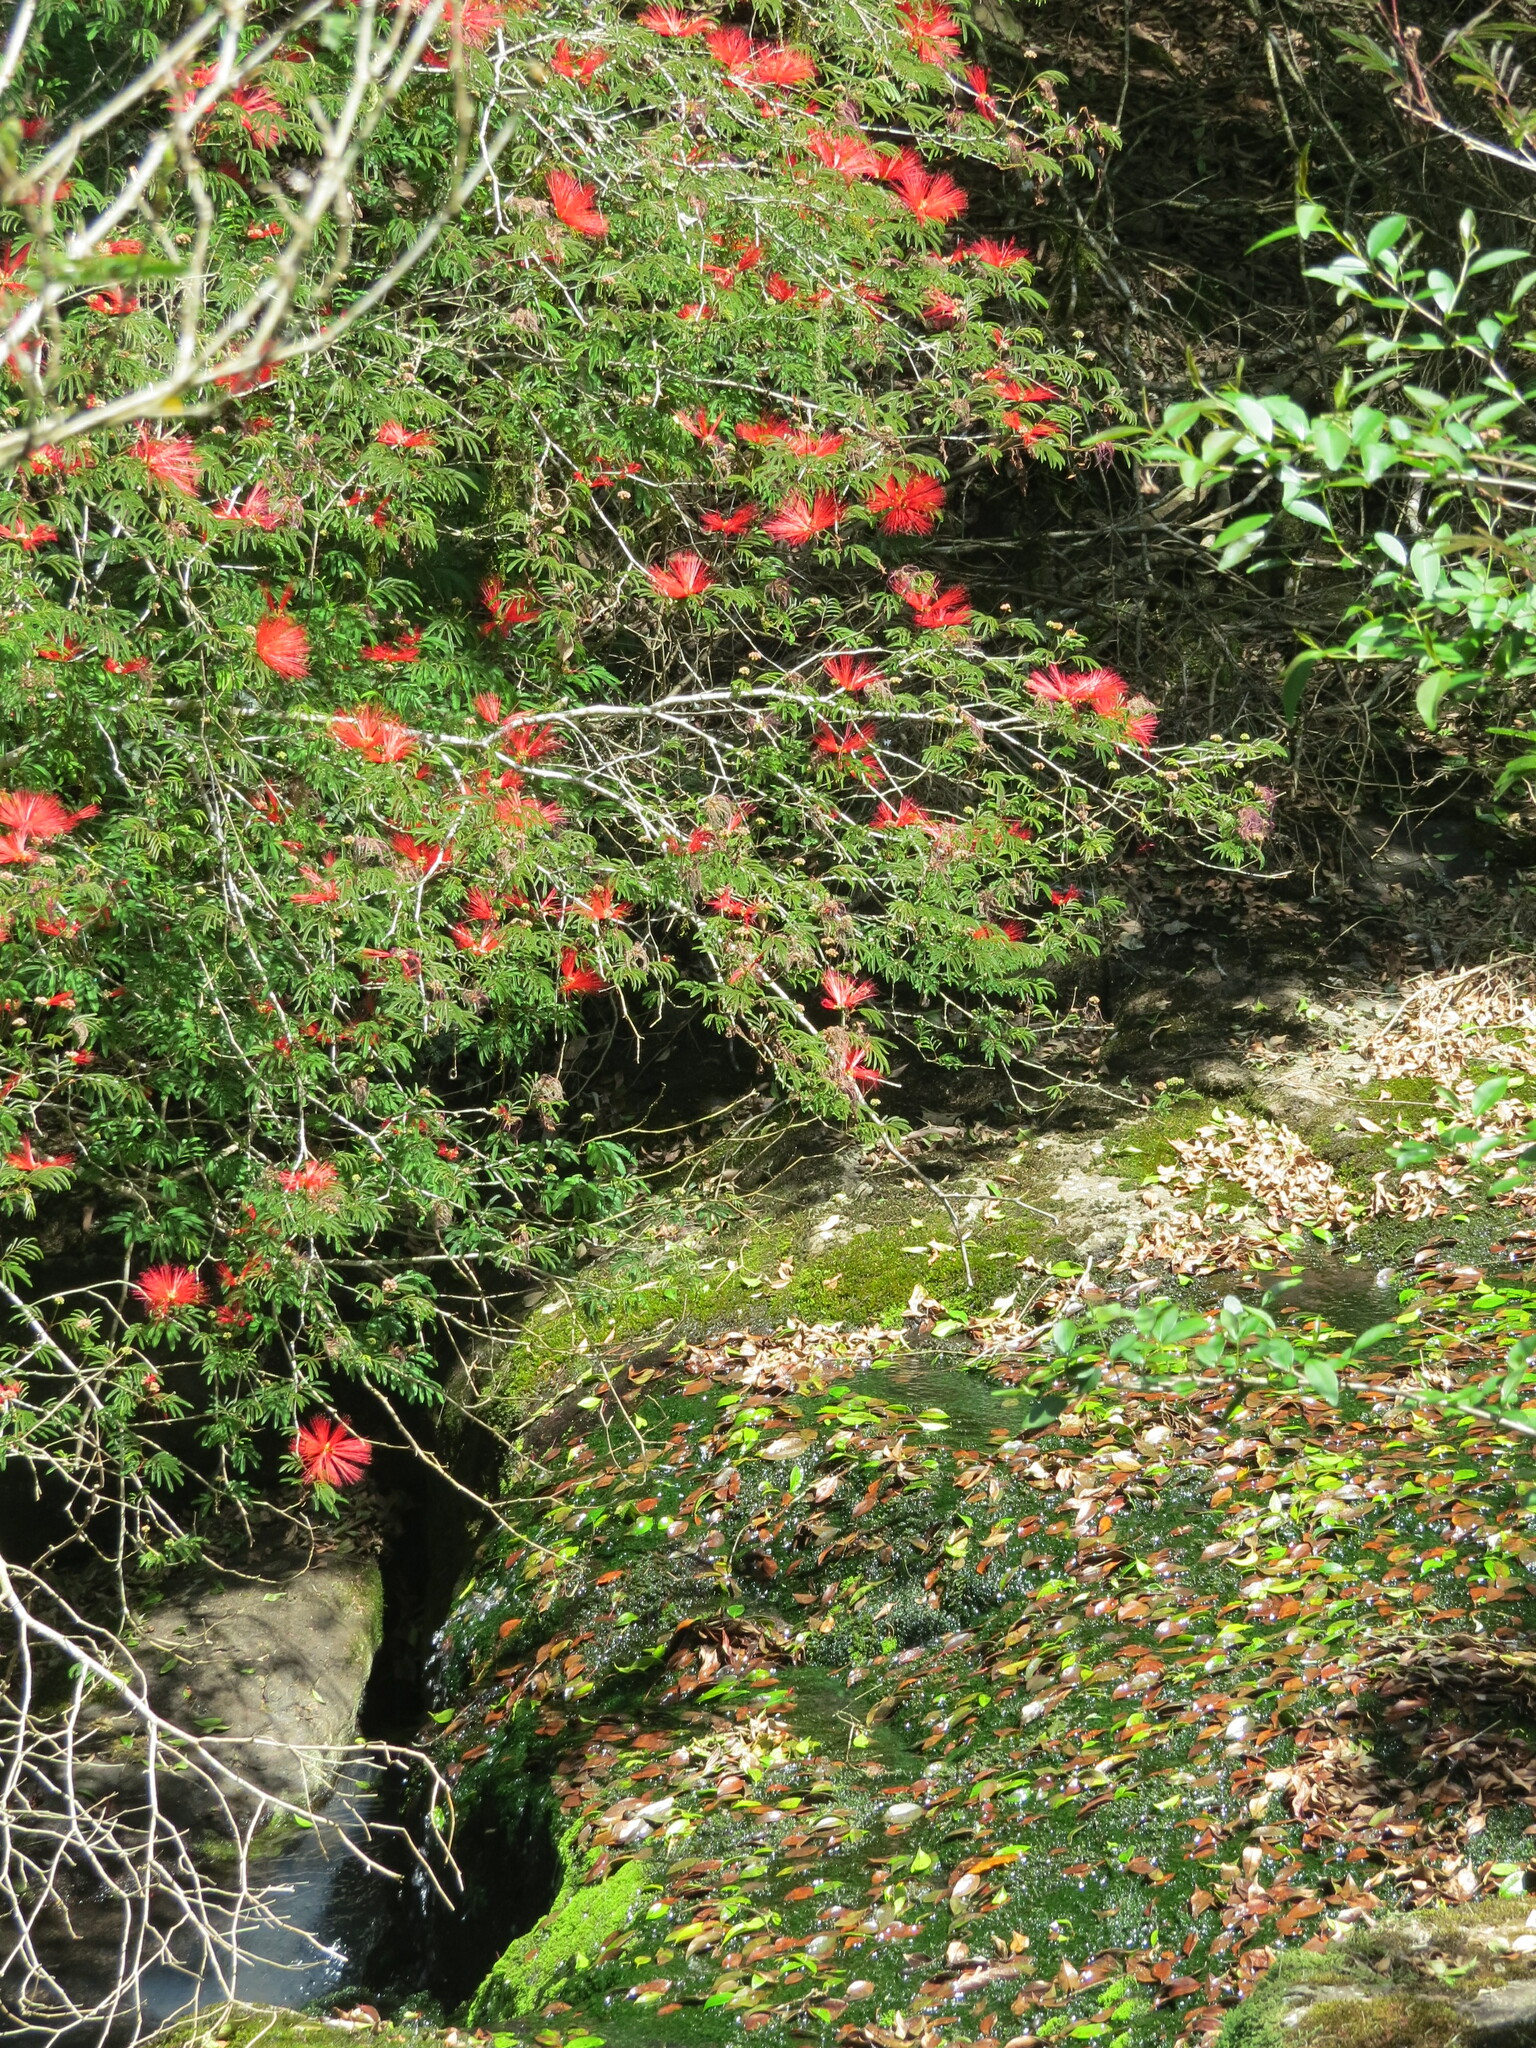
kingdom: Plantae
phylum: Tracheophyta
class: Magnoliopsida
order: Fabales
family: Fabaceae
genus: Calliandra
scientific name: Calliandra tweediei
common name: Mexican flamebush
